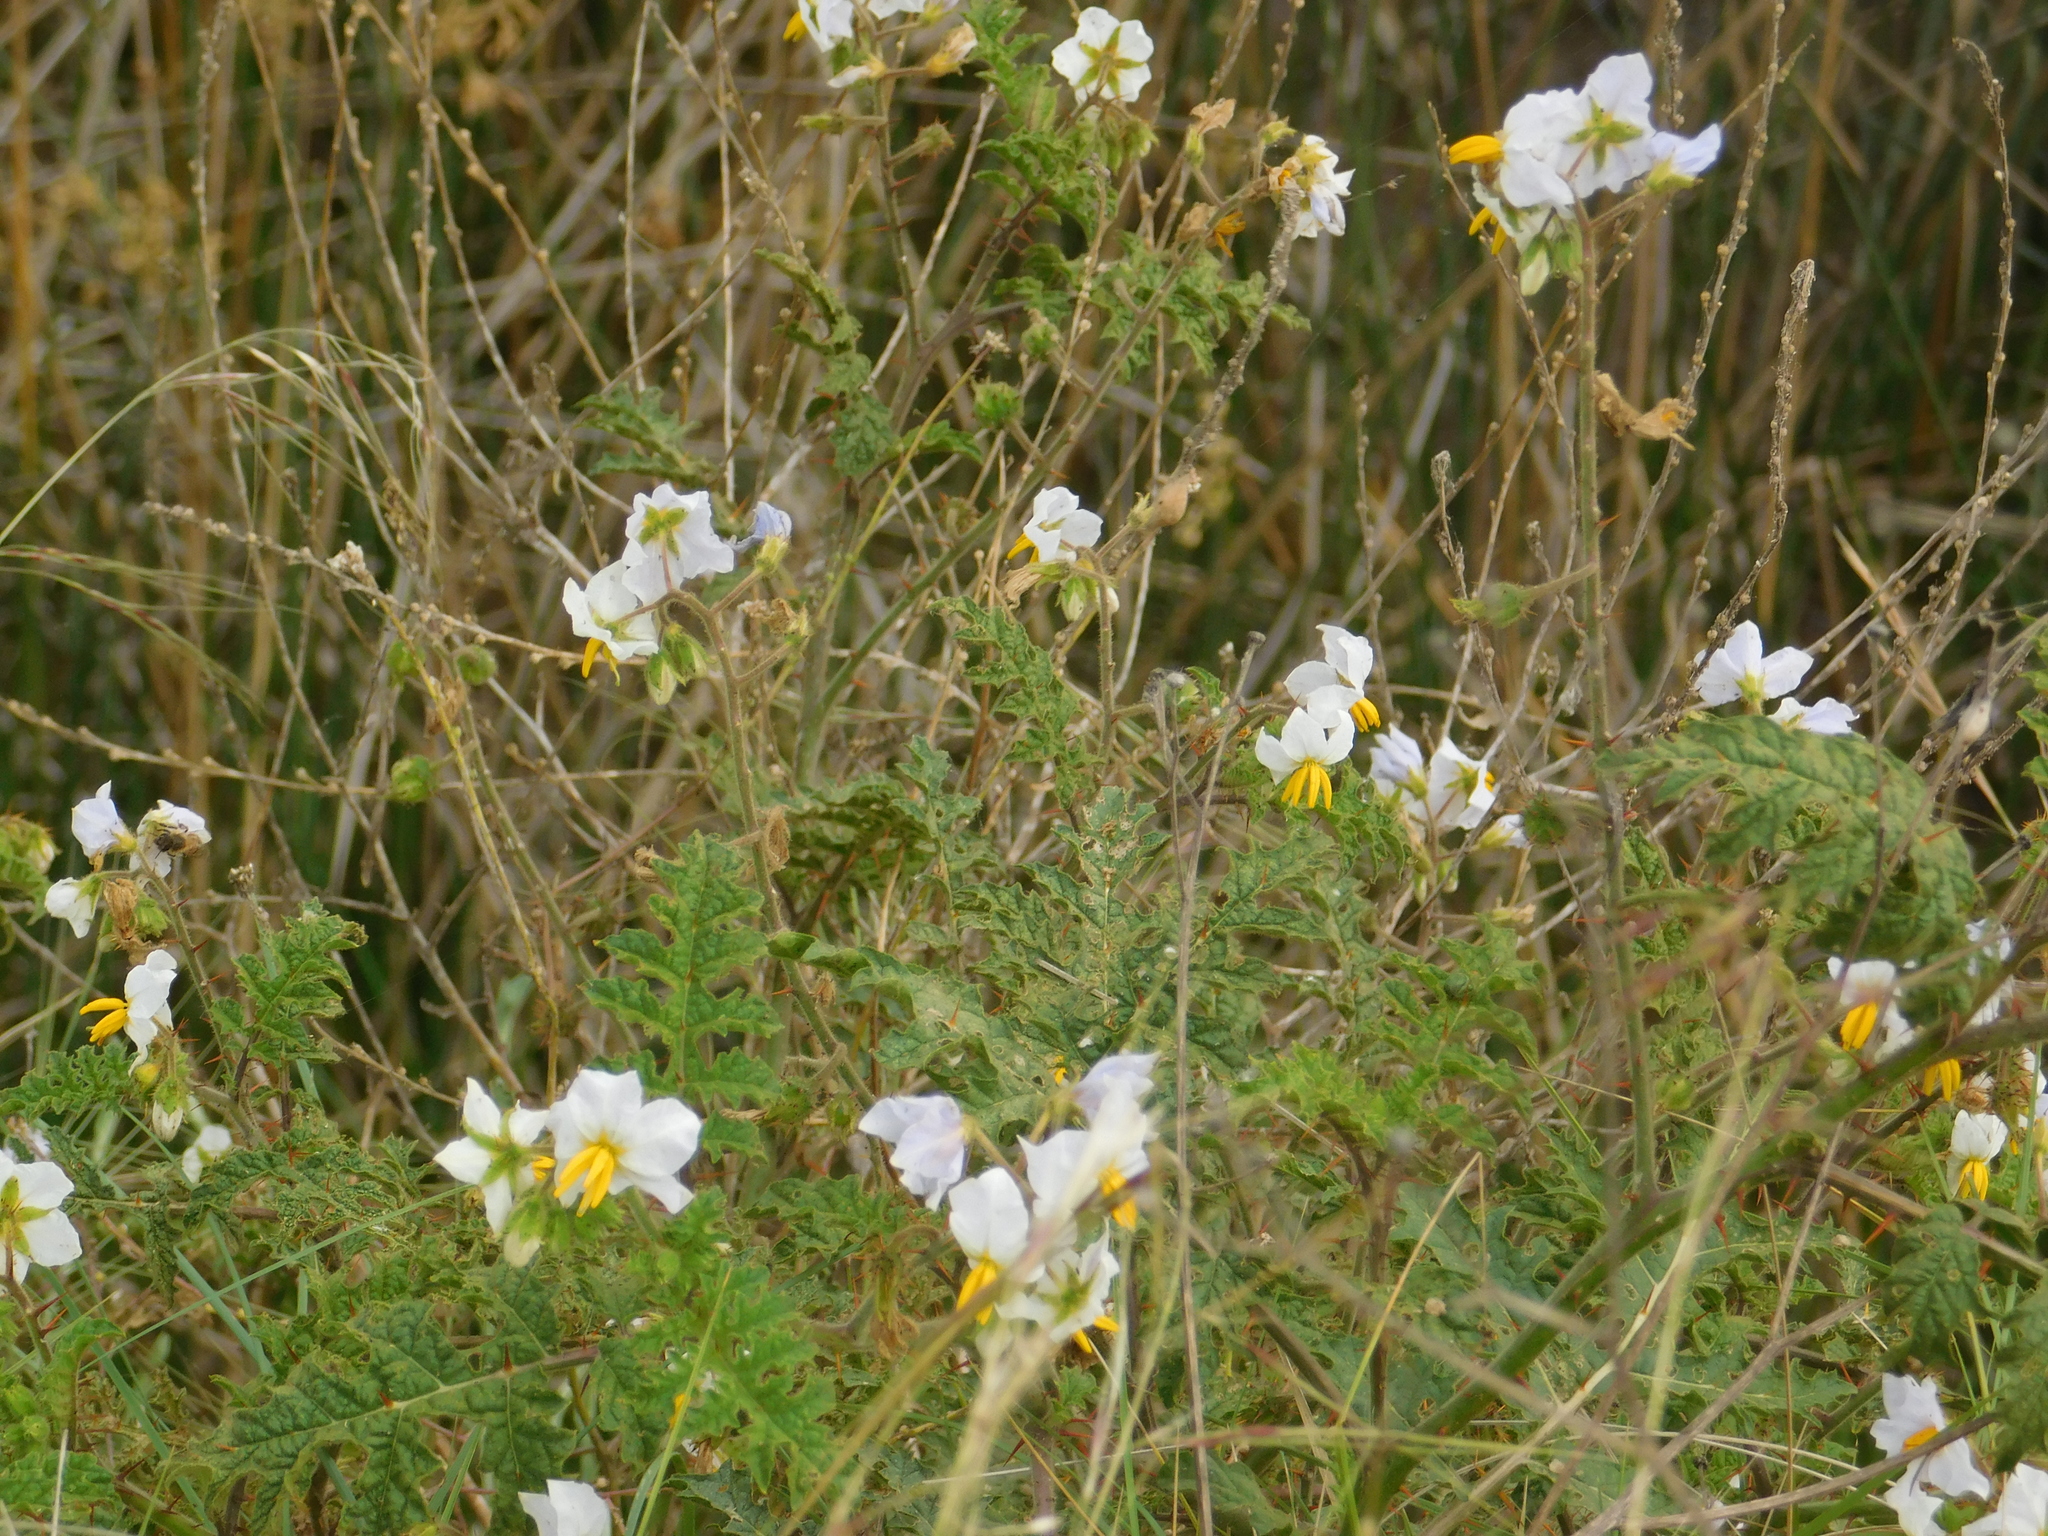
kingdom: Plantae
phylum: Tracheophyta
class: Magnoliopsida
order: Solanales
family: Solanaceae
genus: Solanum
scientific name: Solanum sisymbriifolium
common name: Red buffalo-bur
